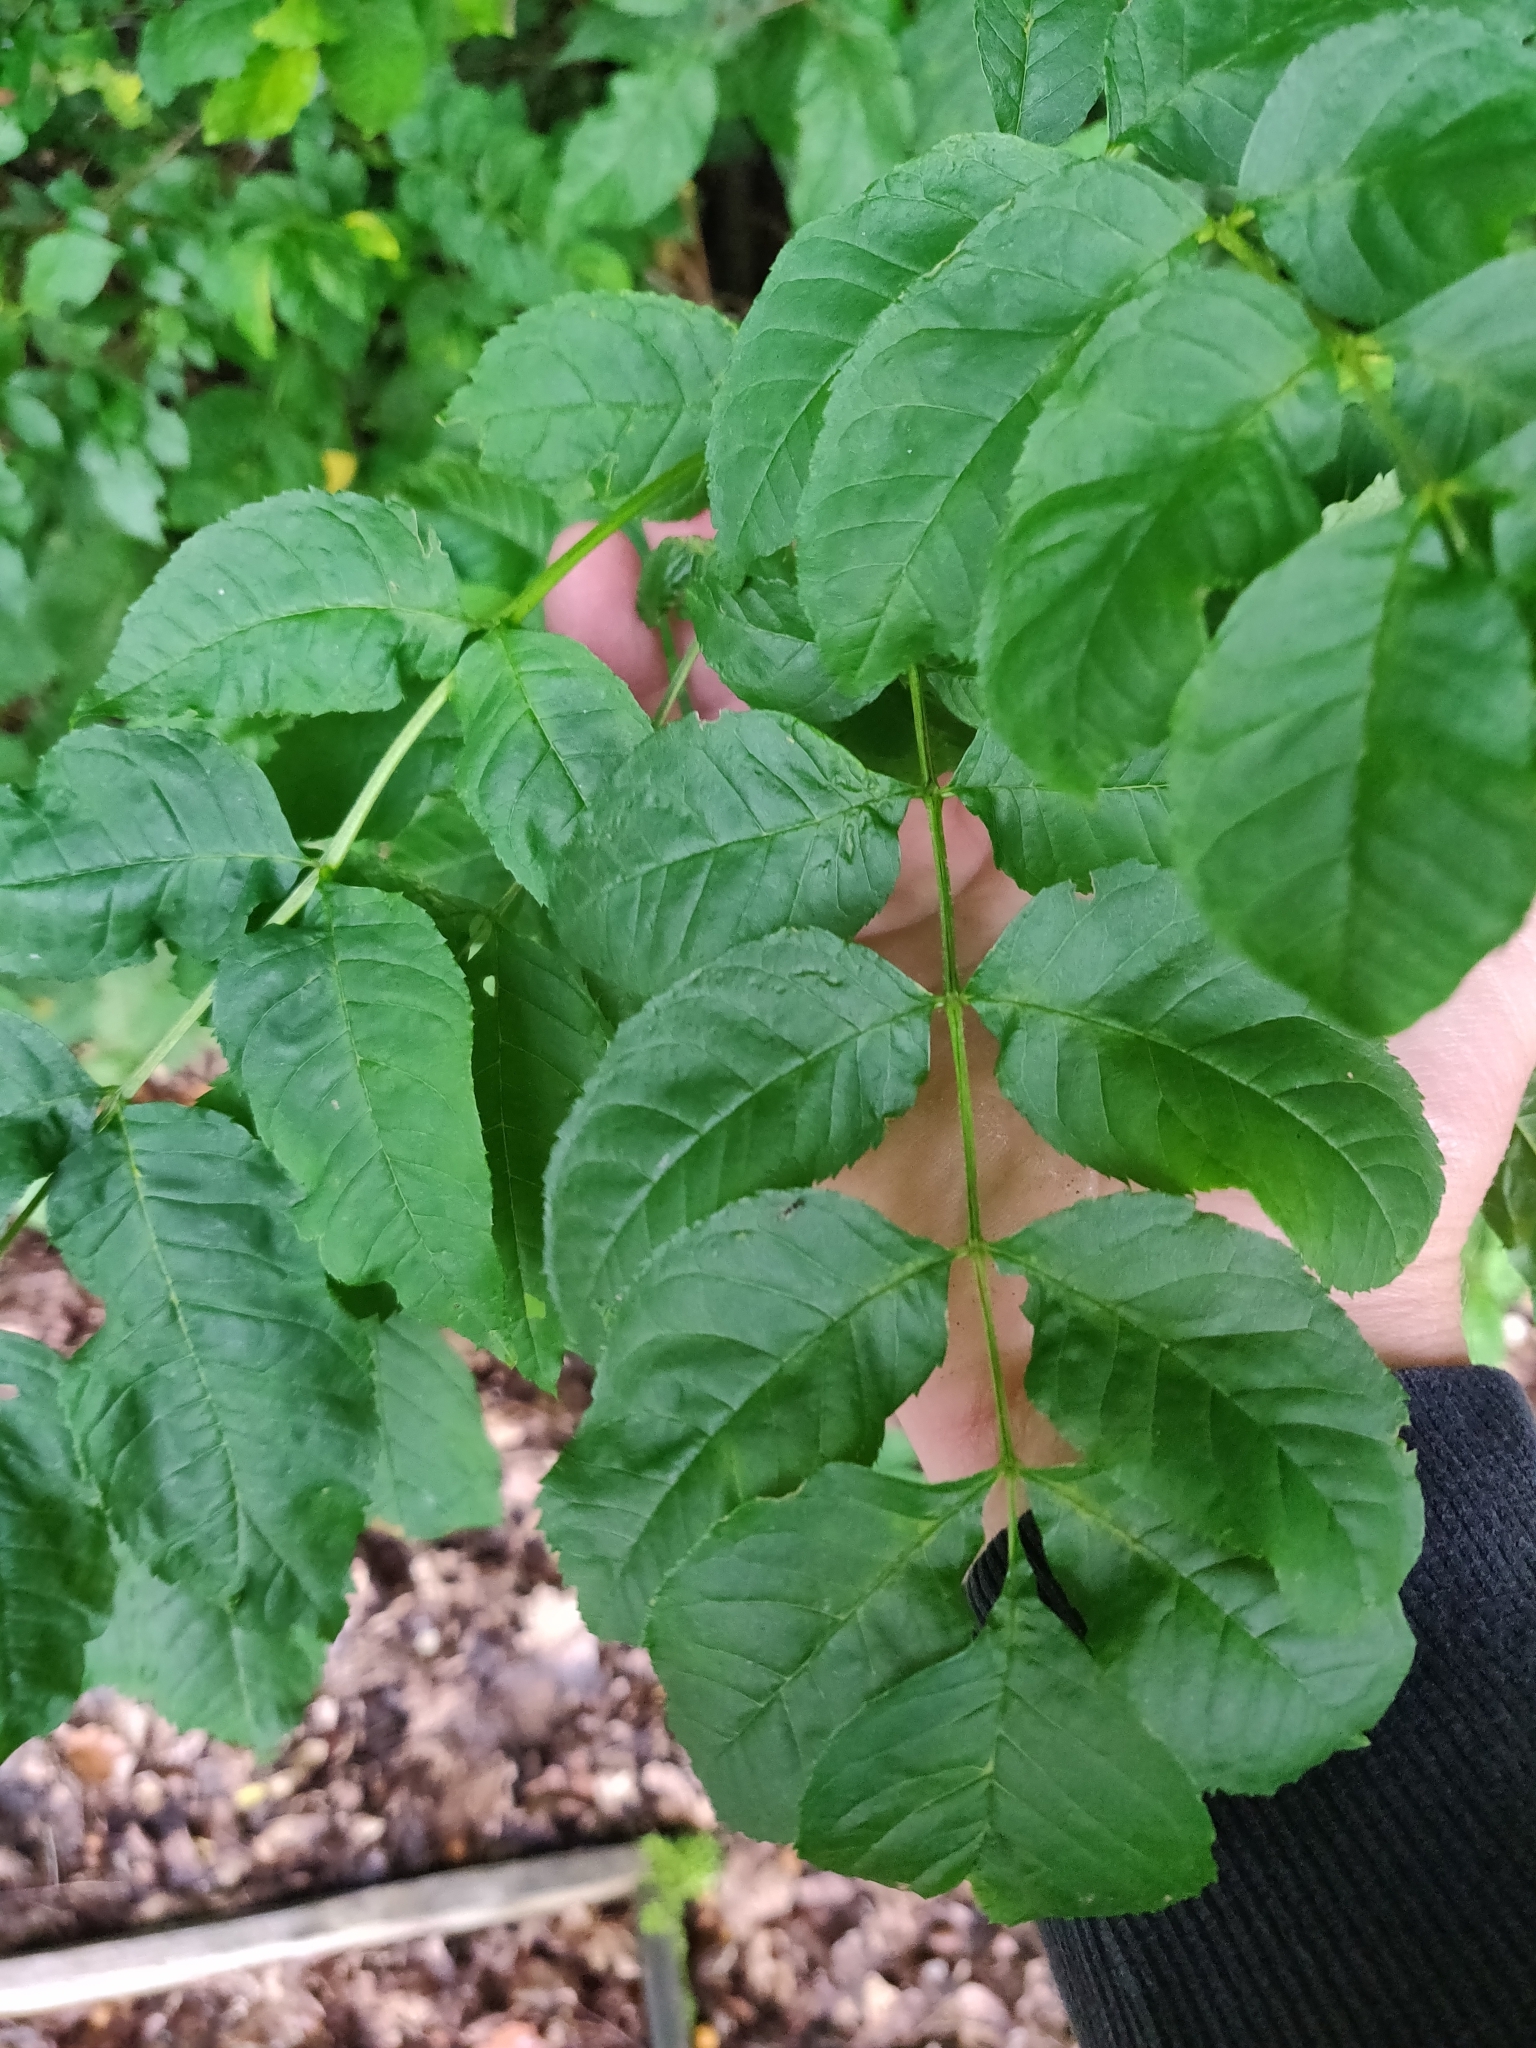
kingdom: Plantae
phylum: Tracheophyta
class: Magnoliopsida
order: Lamiales
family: Oleaceae
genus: Fraxinus
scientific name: Fraxinus pennsylvanica
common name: Green ash
